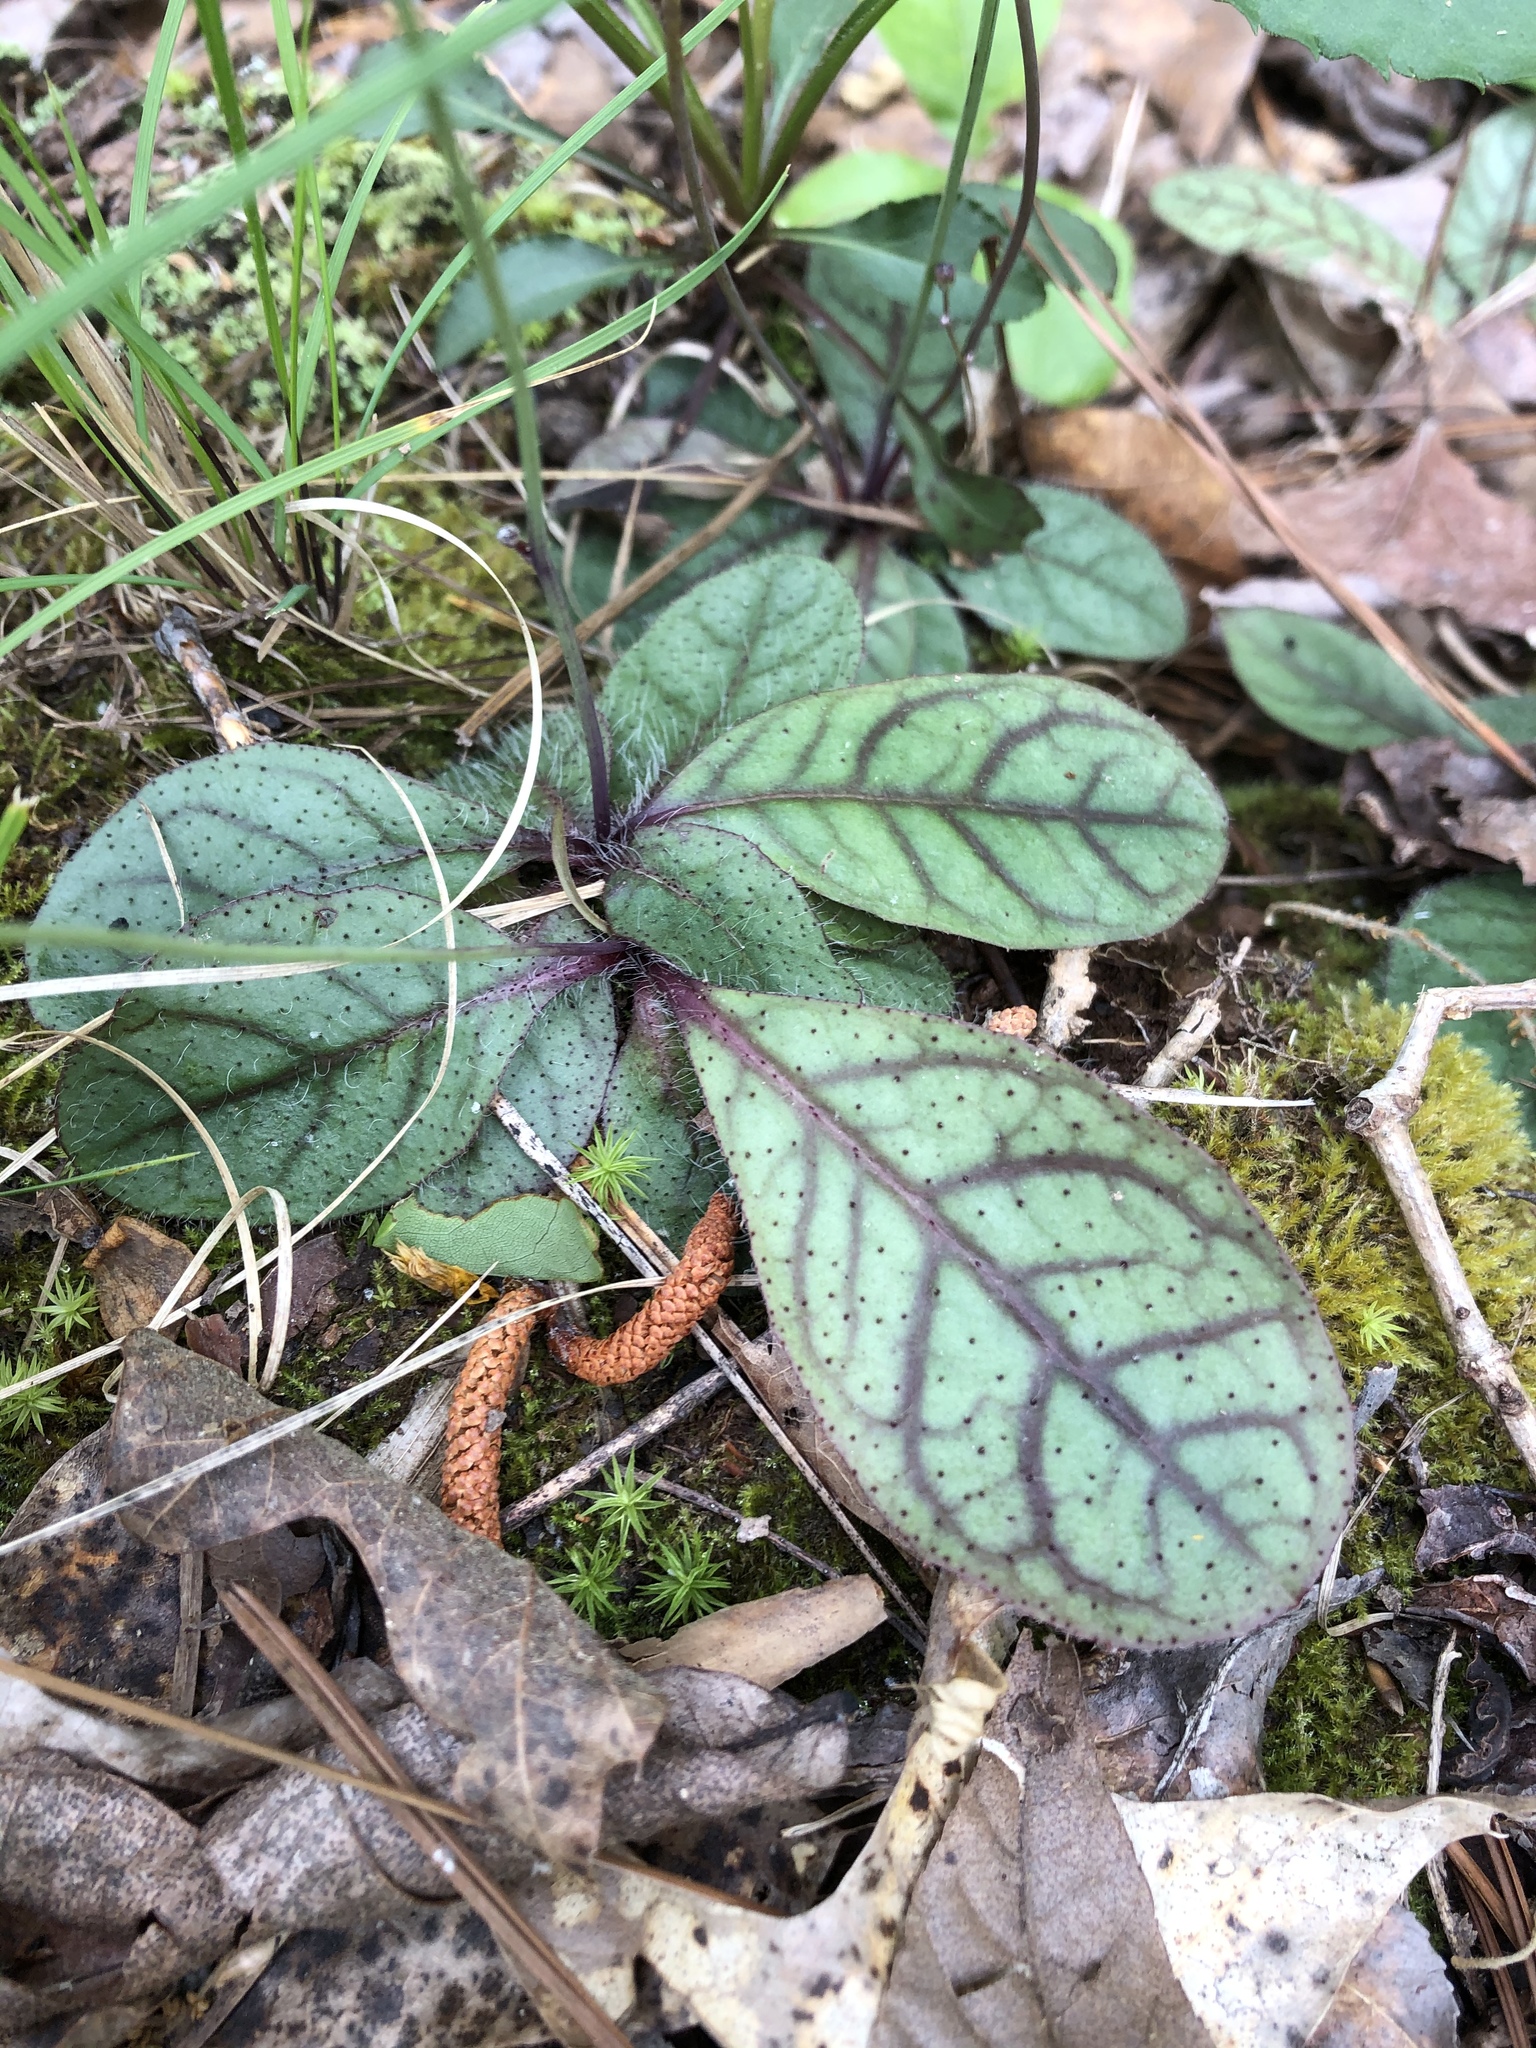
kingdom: Plantae
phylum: Tracheophyta
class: Magnoliopsida
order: Asterales
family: Asteraceae
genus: Hieracium
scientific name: Hieracium venosum
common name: Rattlesnake hawkweed
